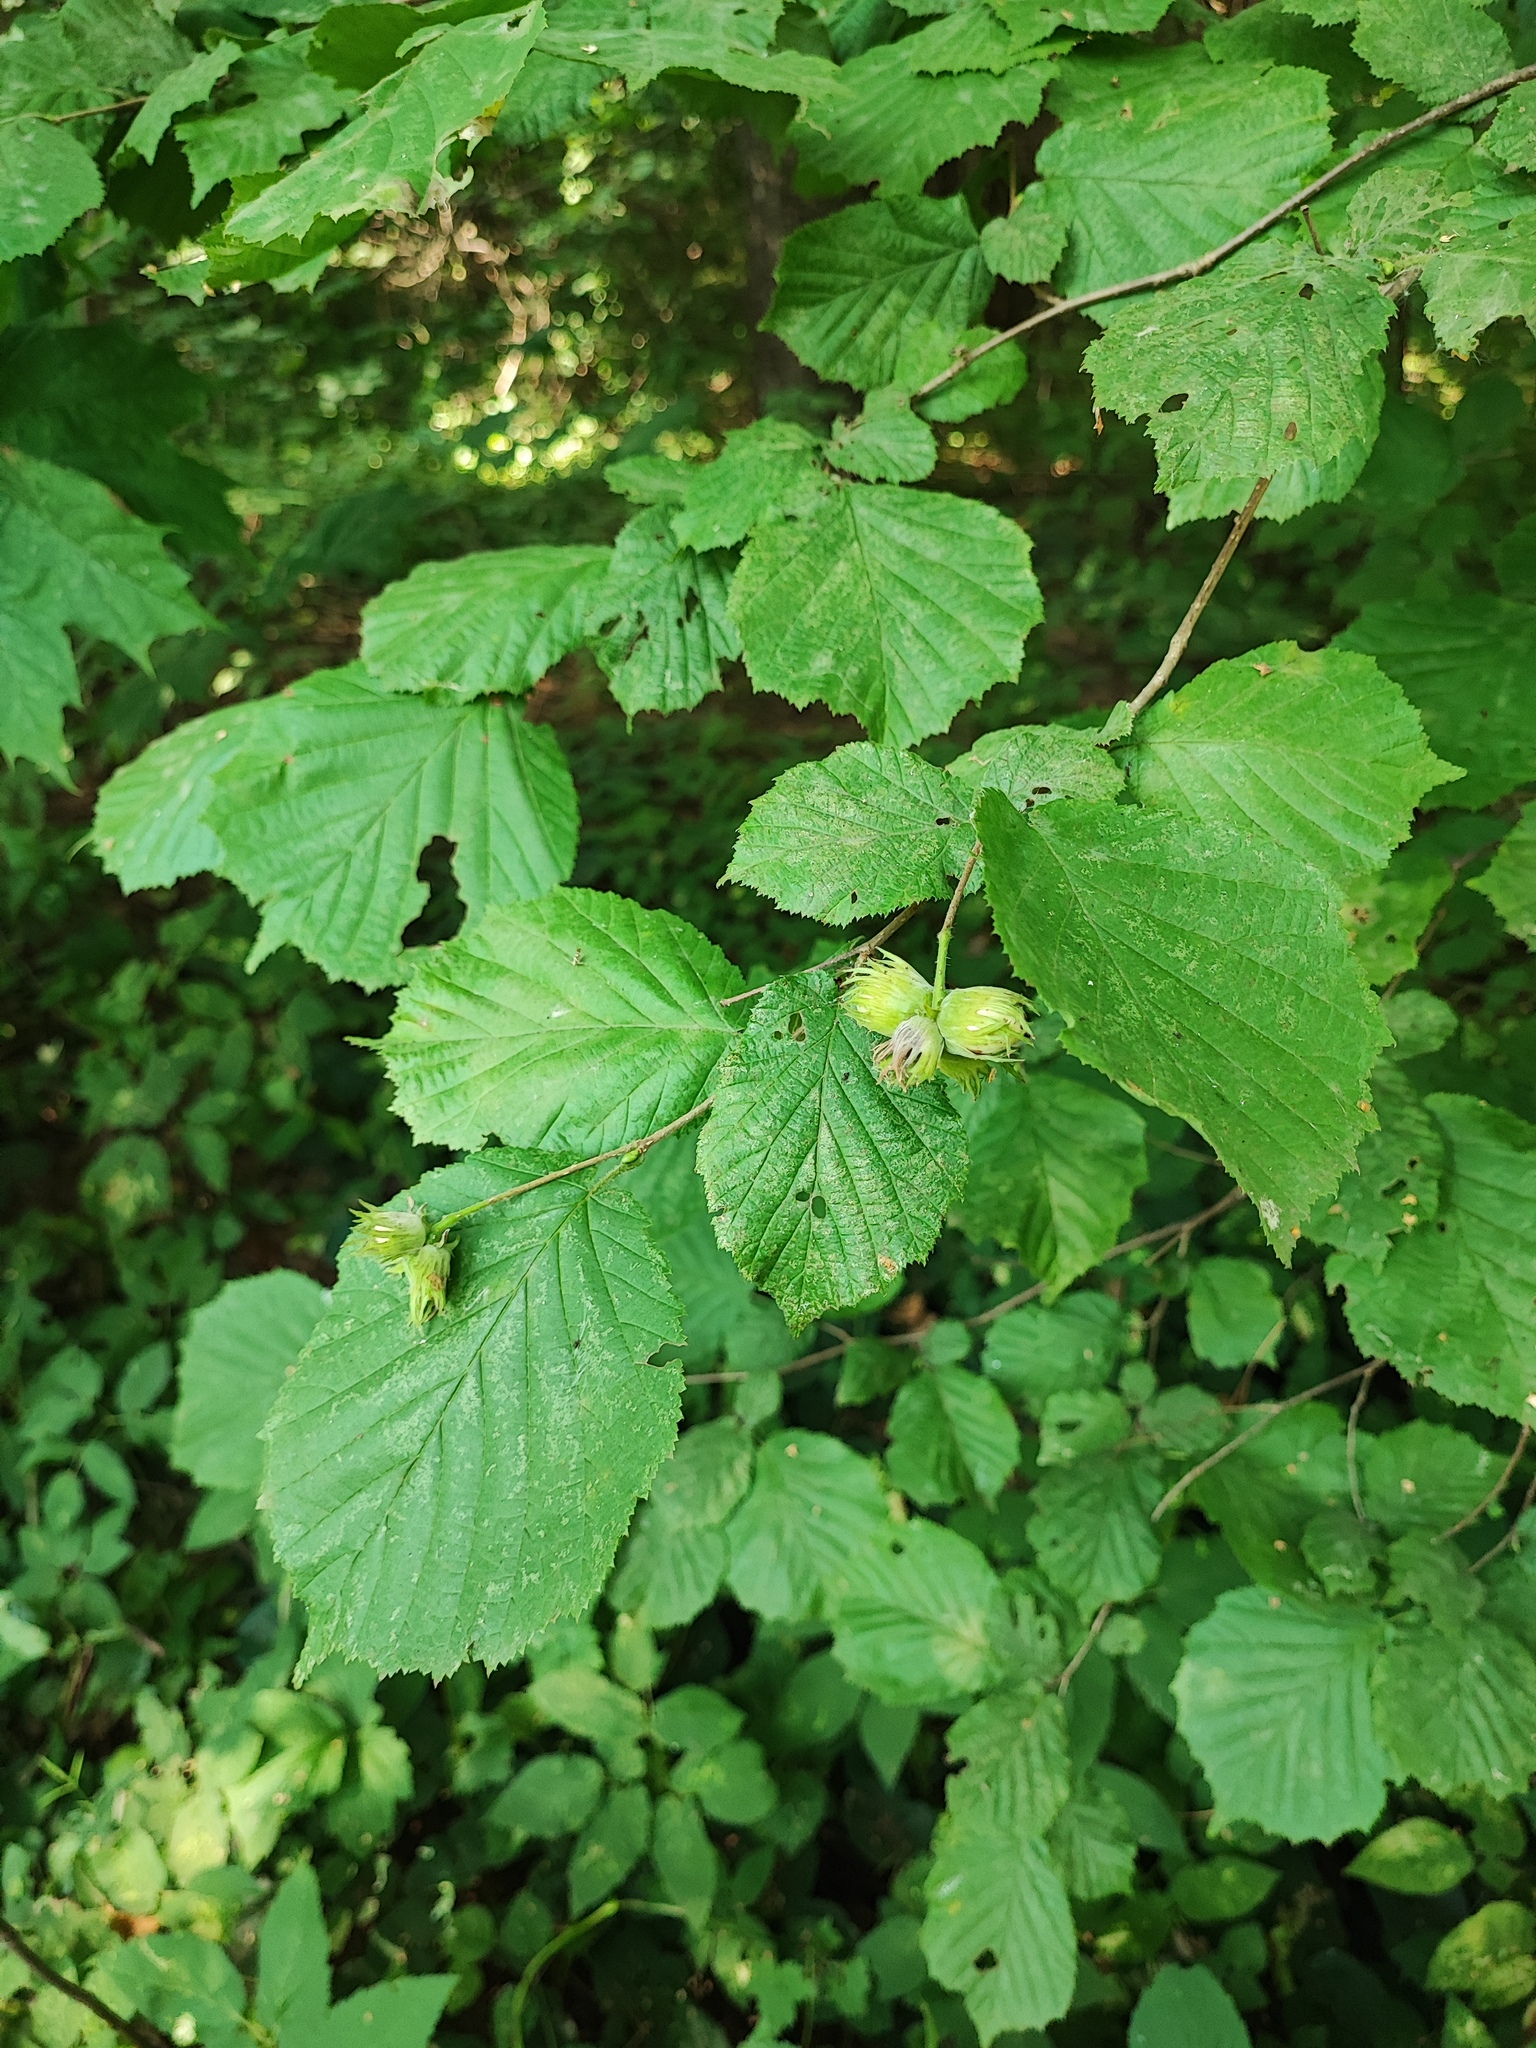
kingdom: Plantae
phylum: Tracheophyta
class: Magnoliopsida
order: Fagales
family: Betulaceae
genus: Corylus
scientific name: Corylus avellana
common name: European hazel
